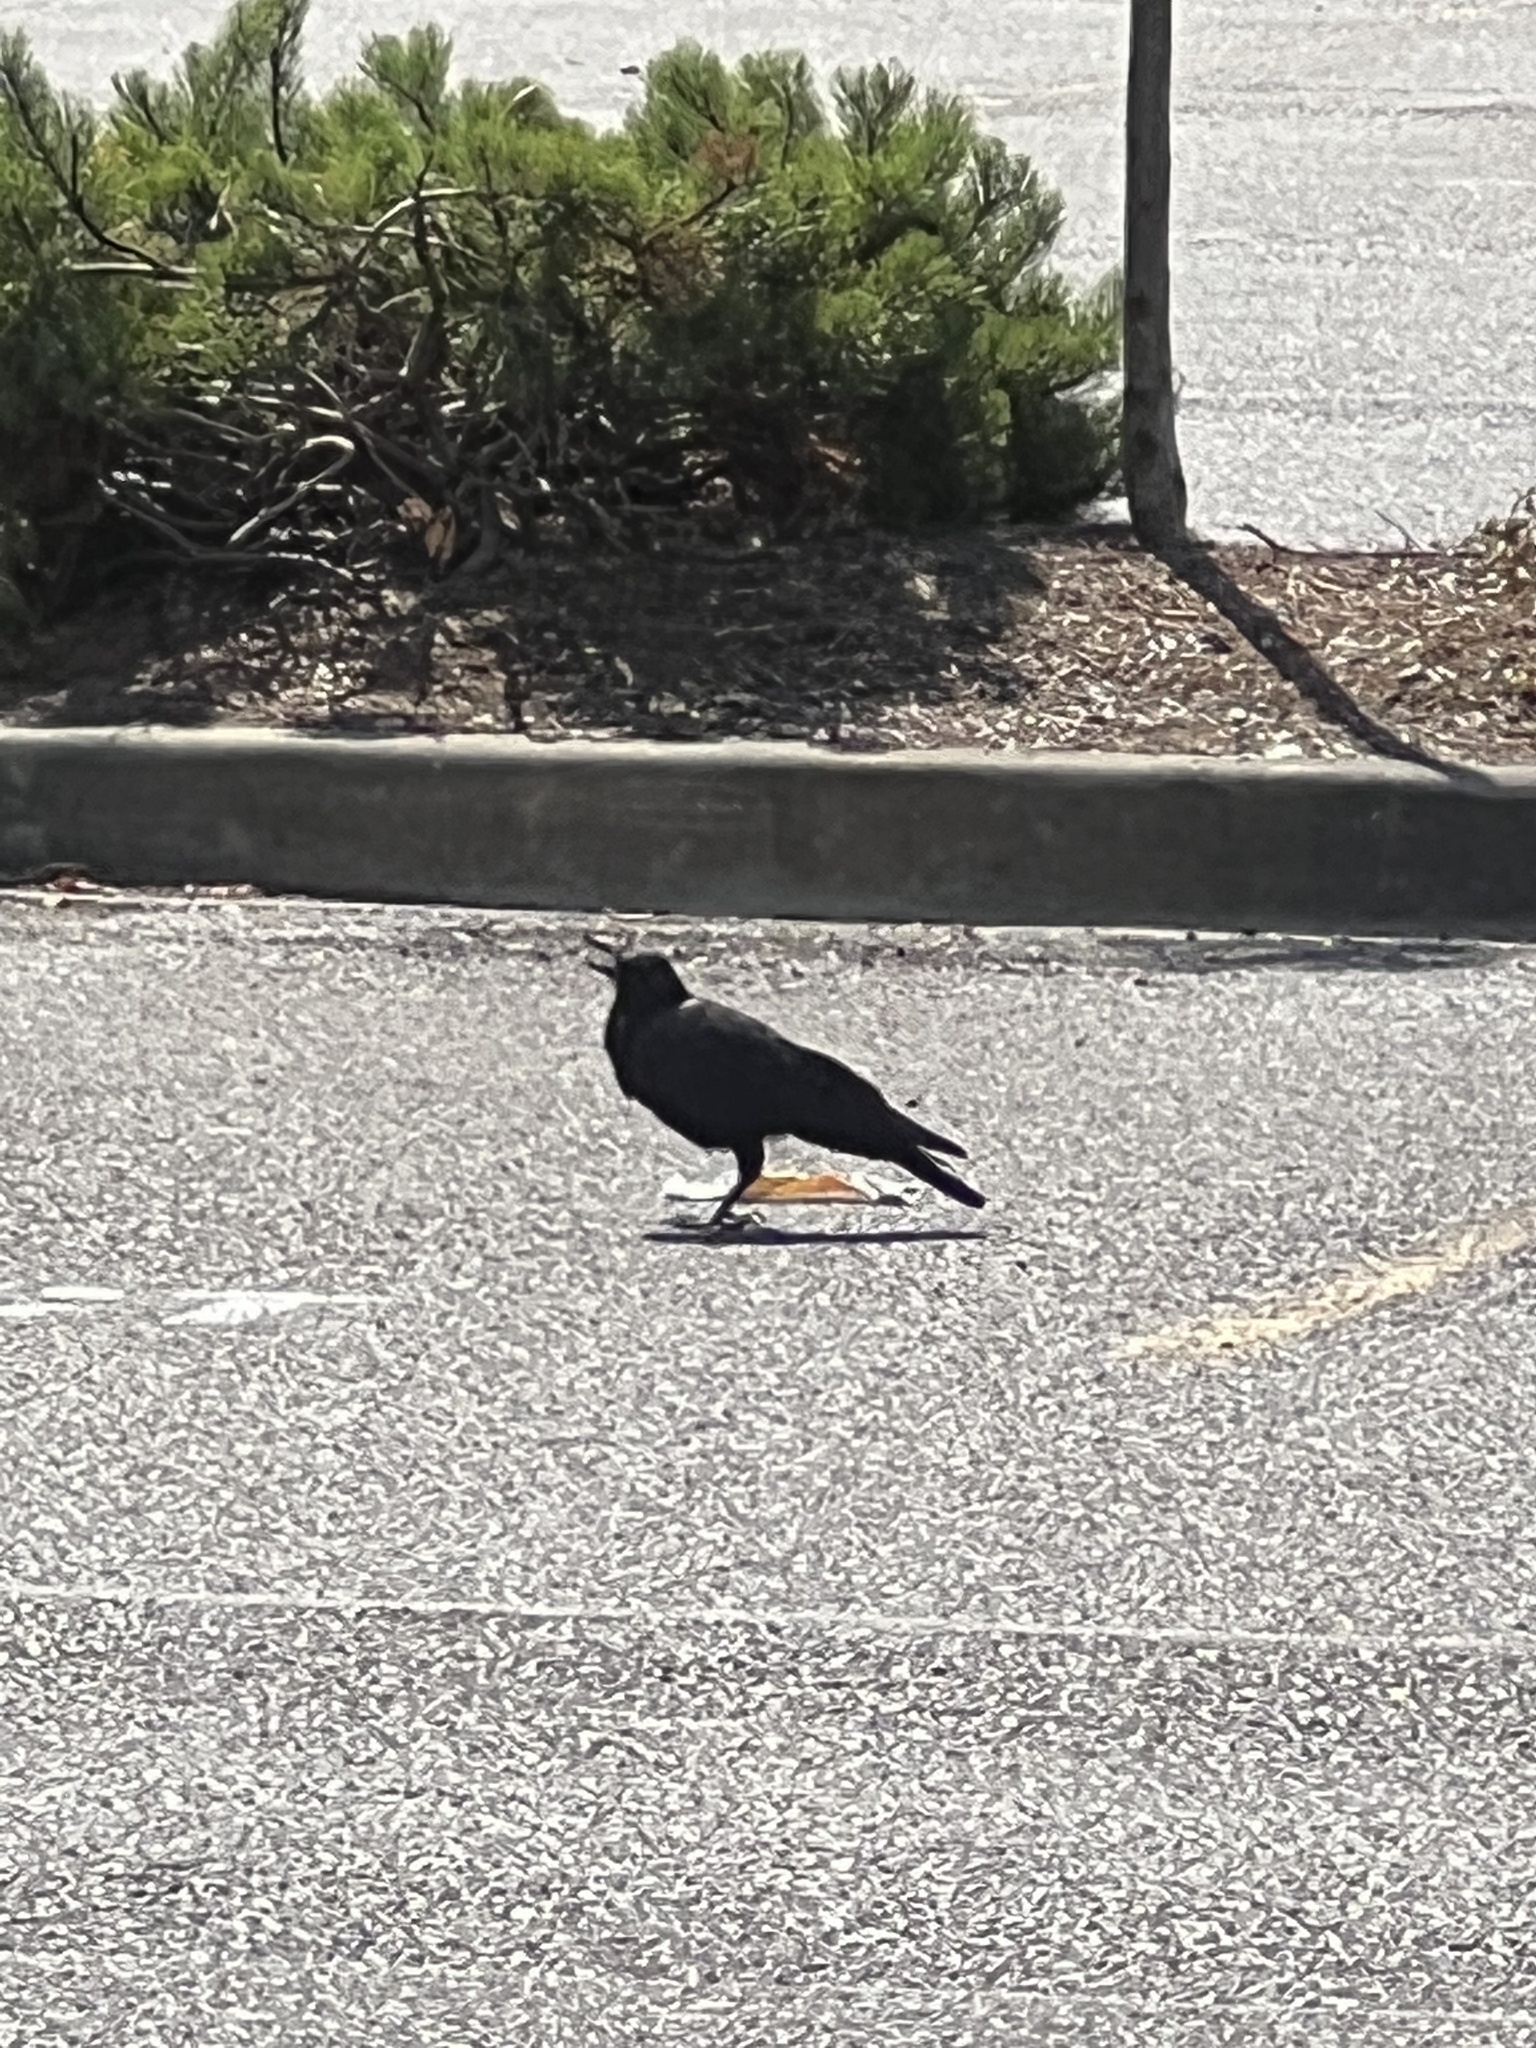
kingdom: Animalia
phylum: Chordata
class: Aves
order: Passeriformes
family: Corvidae
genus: Corvus
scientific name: Corvus brachyrhynchos
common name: American crow
